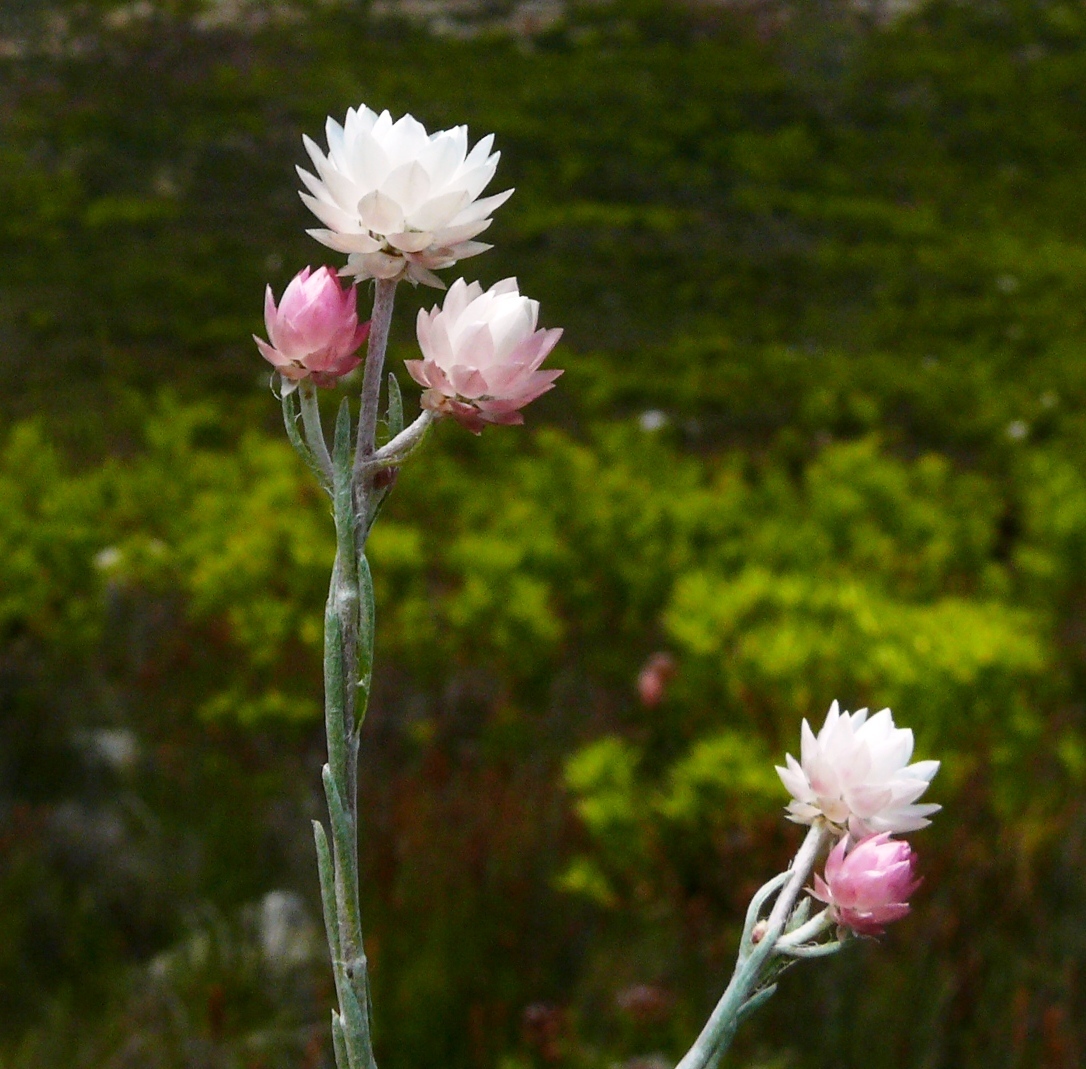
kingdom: Plantae
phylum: Tracheophyta
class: Magnoliopsida
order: Asterales
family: Asteraceae
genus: Achyranthemum
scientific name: Achyranthemum paniculatum
